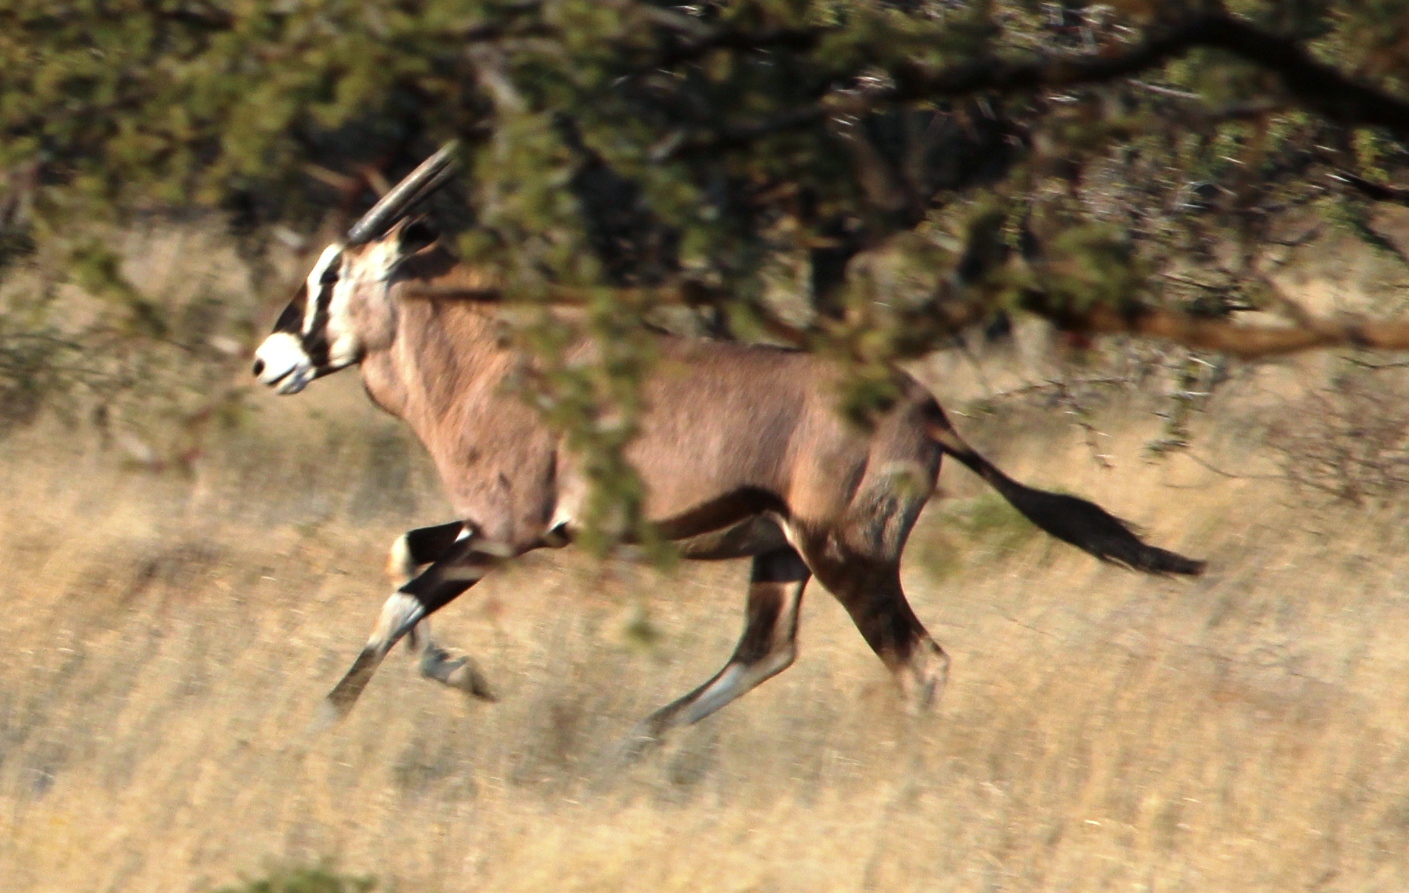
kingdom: Animalia
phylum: Chordata
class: Mammalia
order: Artiodactyla
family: Bovidae
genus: Oryx
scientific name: Oryx gazella
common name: Gemsbok
